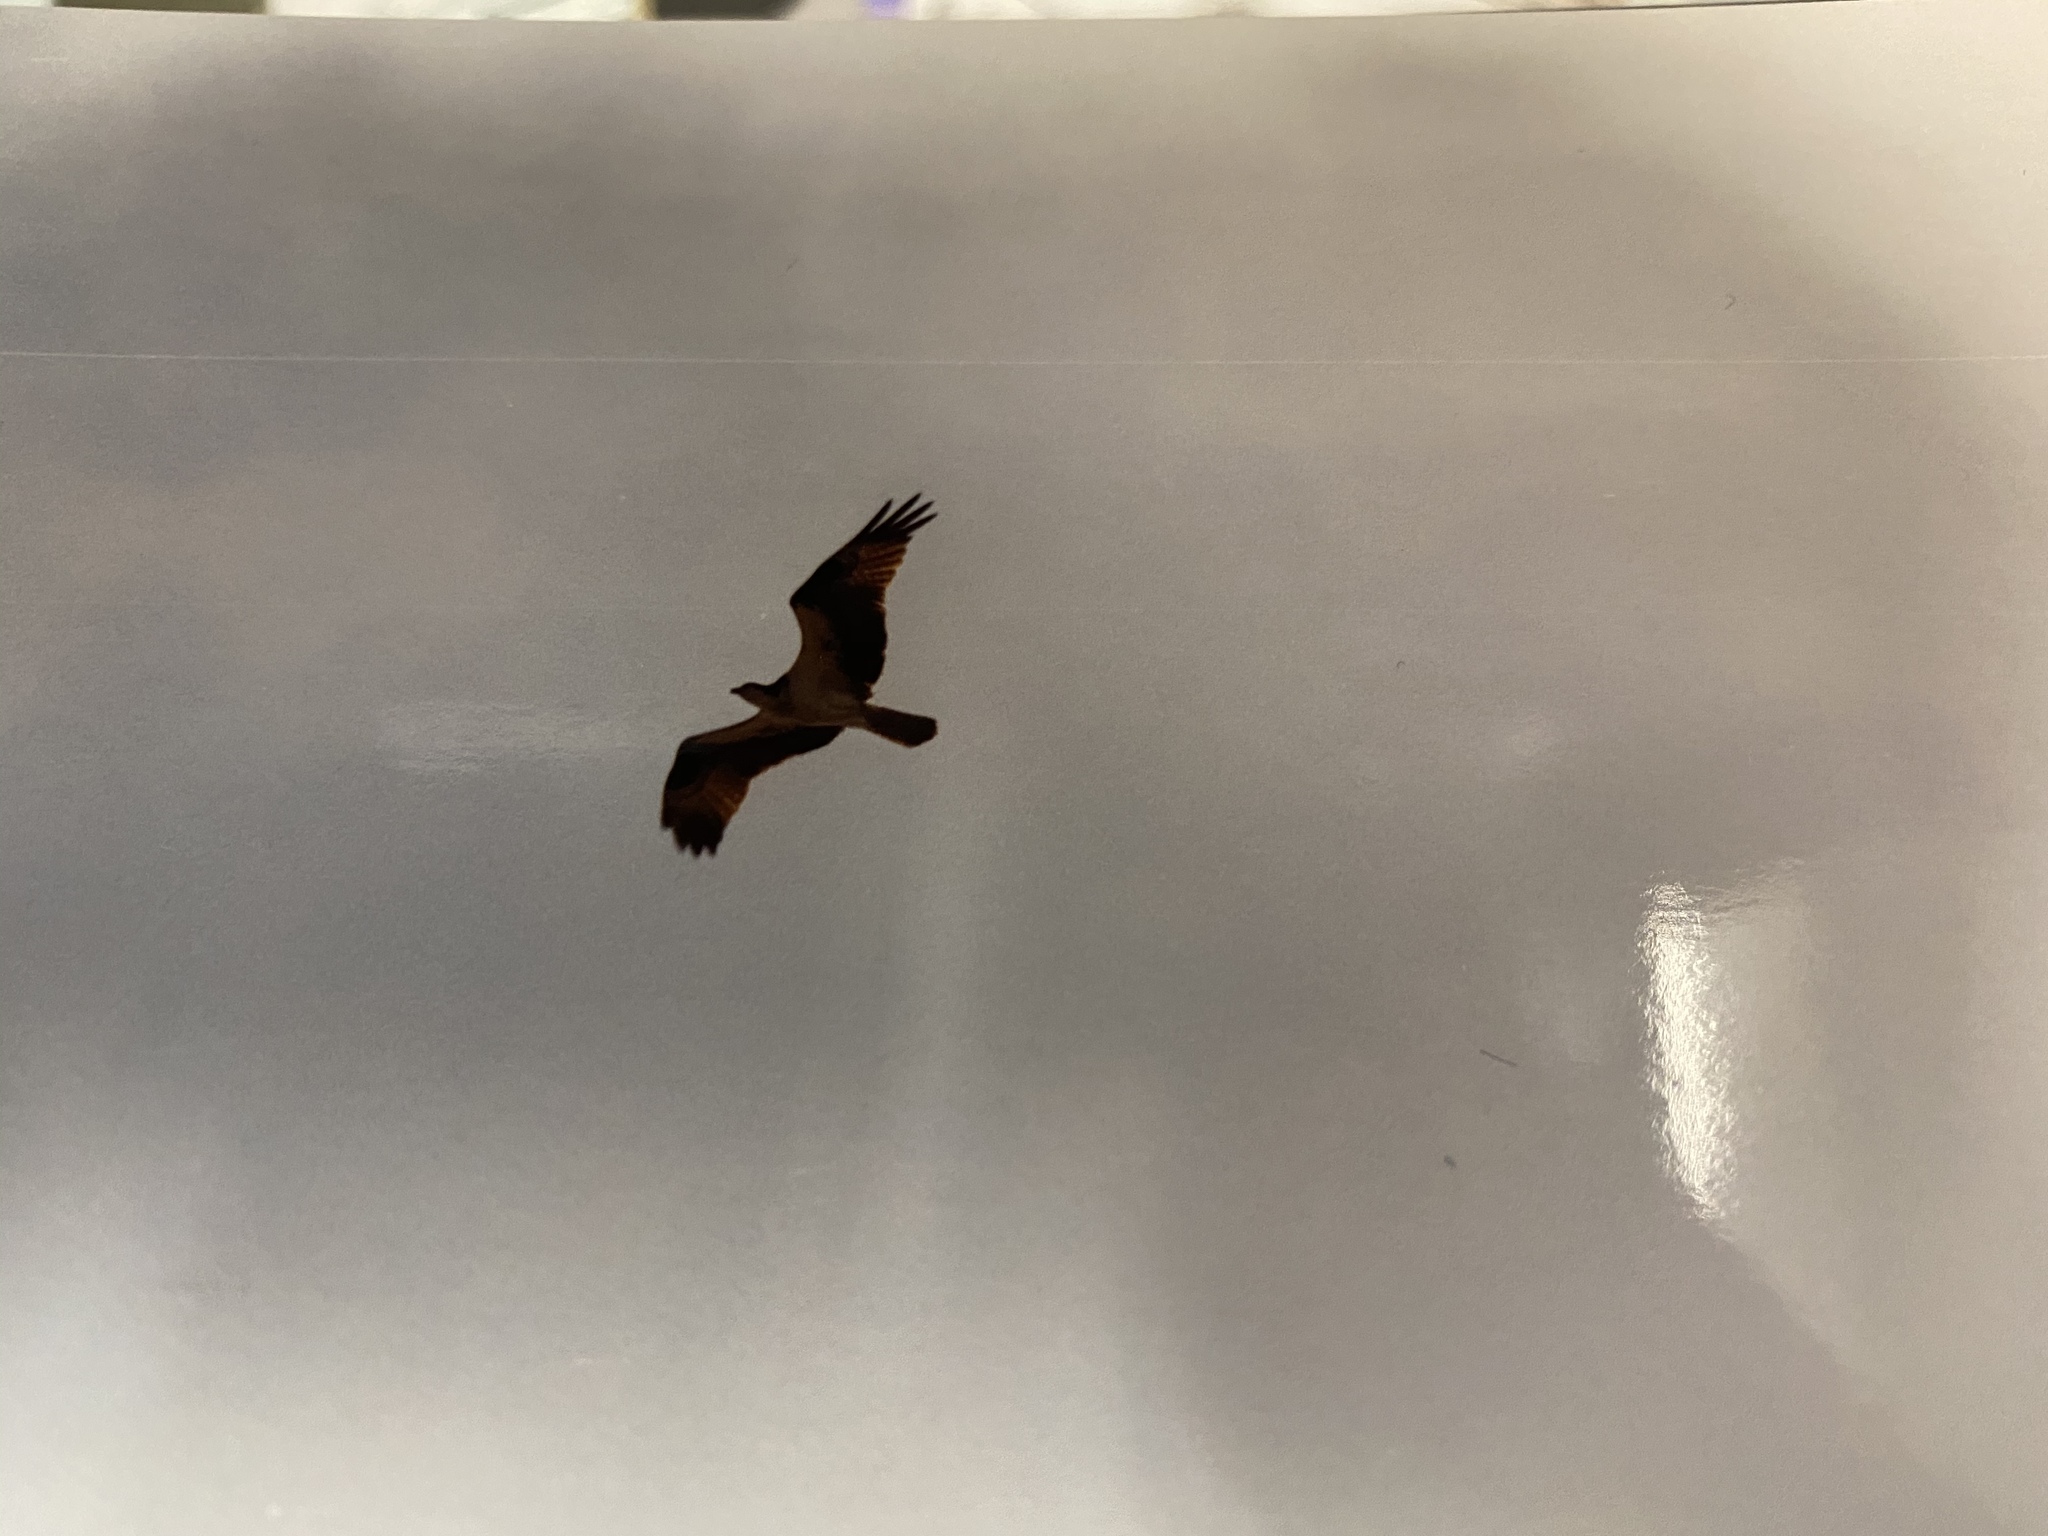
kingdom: Animalia
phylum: Chordata
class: Aves
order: Accipitriformes
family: Pandionidae
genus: Pandion
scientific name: Pandion haliaetus
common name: Osprey
